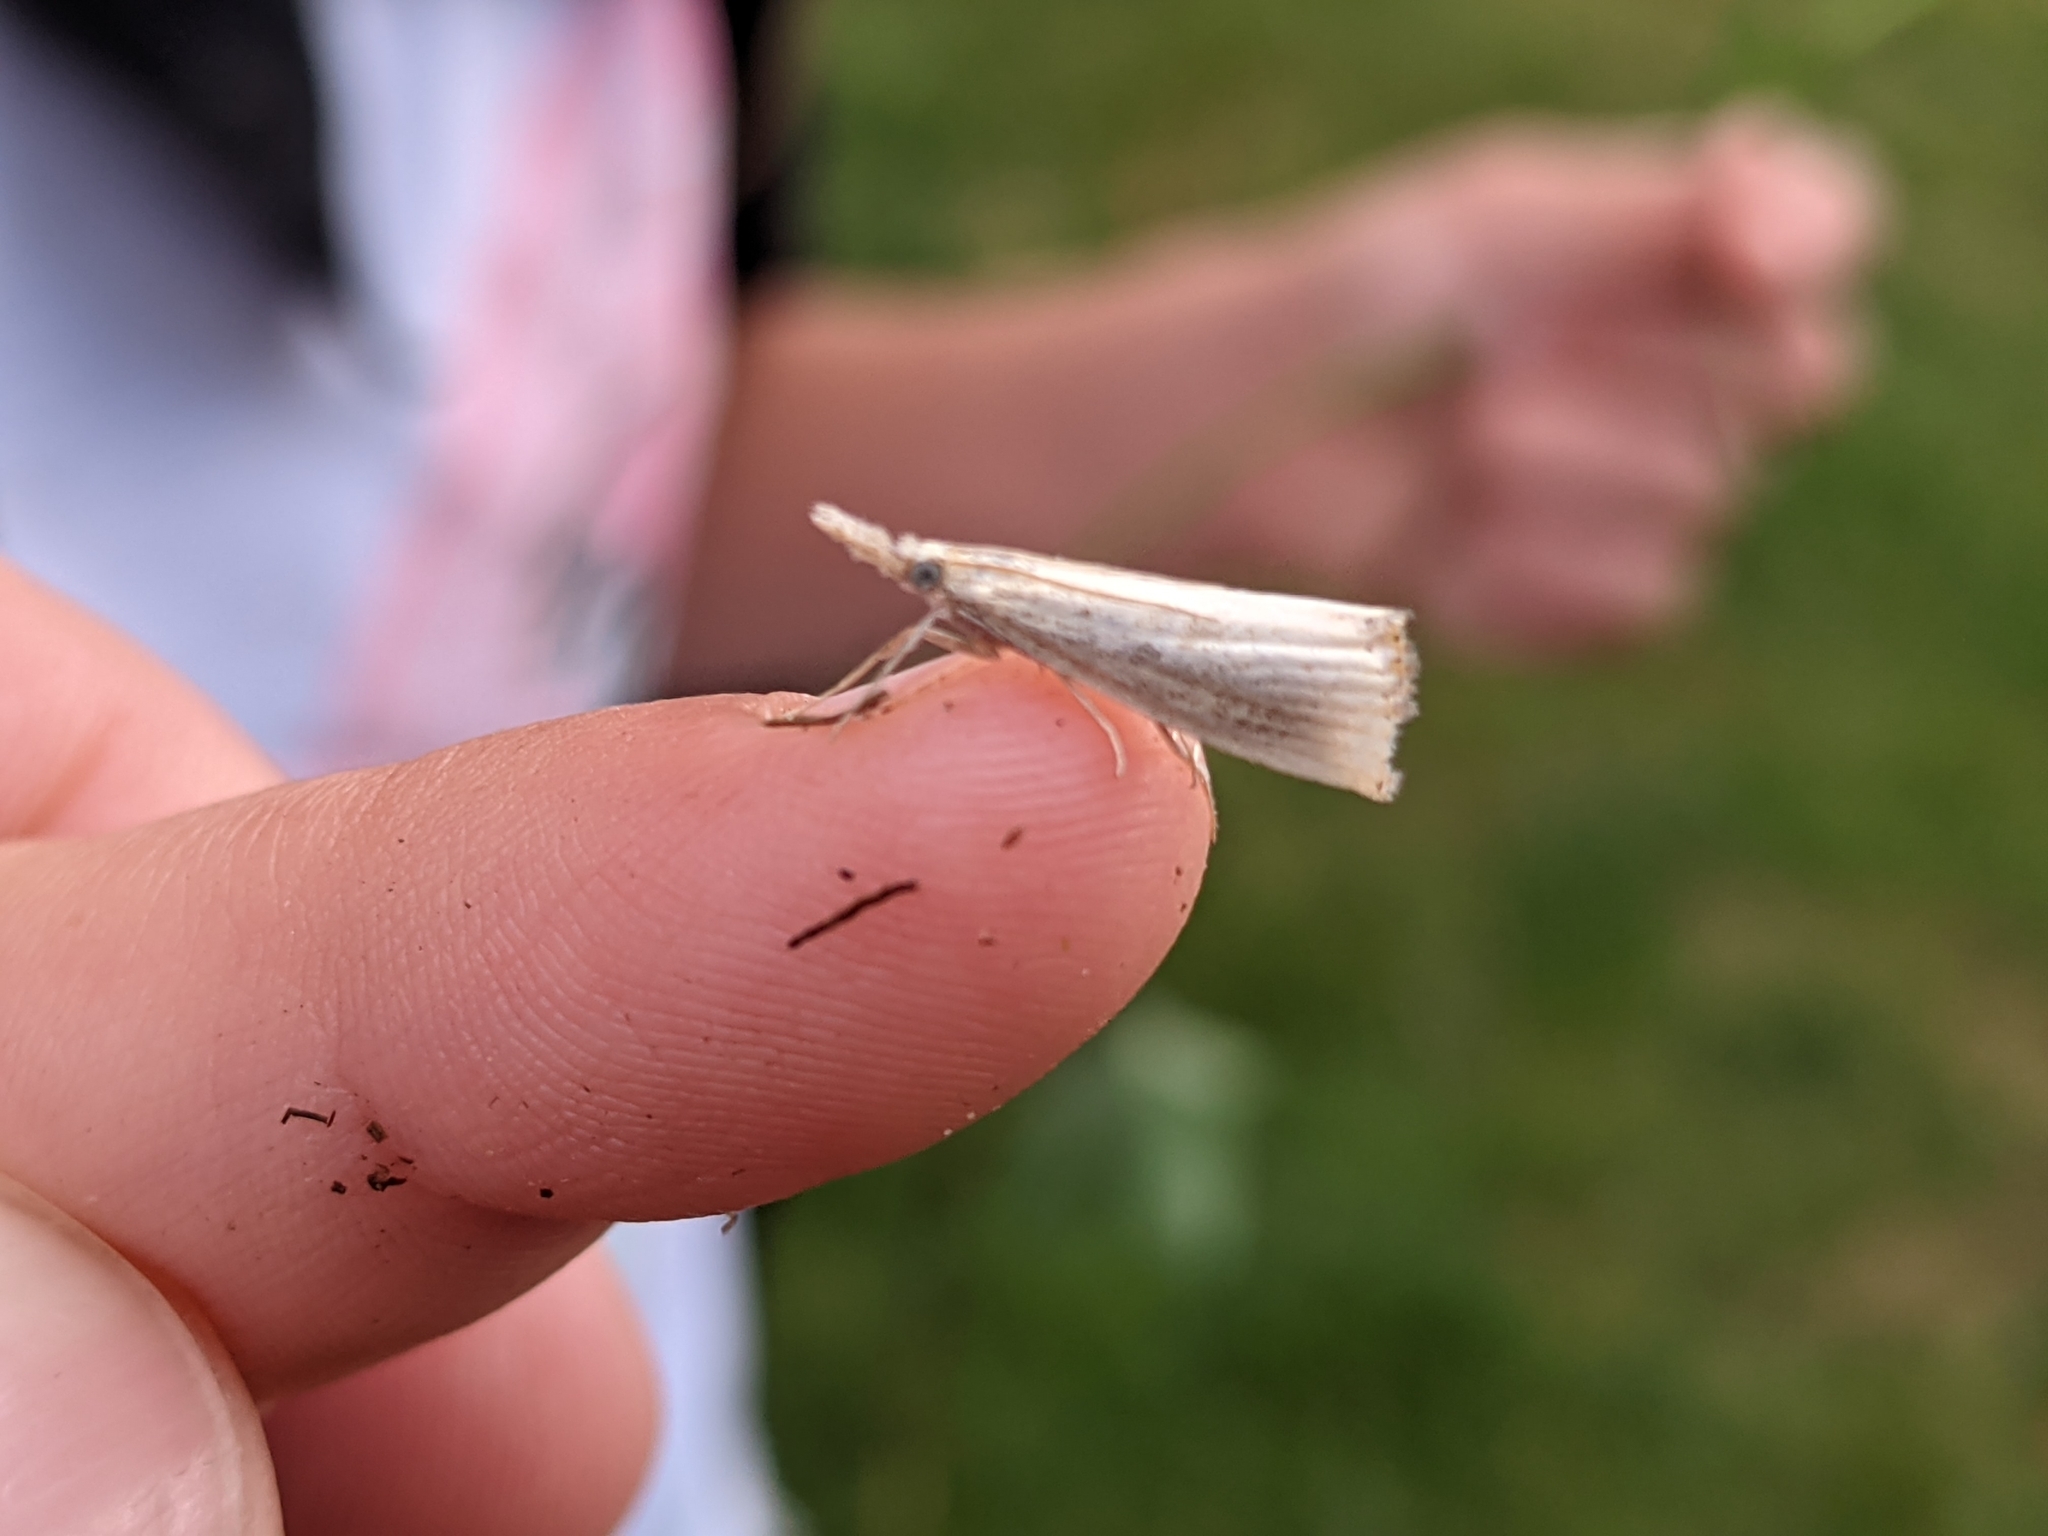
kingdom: Animalia
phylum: Arthropoda
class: Insecta
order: Lepidoptera
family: Crambidae
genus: Agriphila
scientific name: Agriphila vulgivagellus
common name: Vagabond crambus moth
